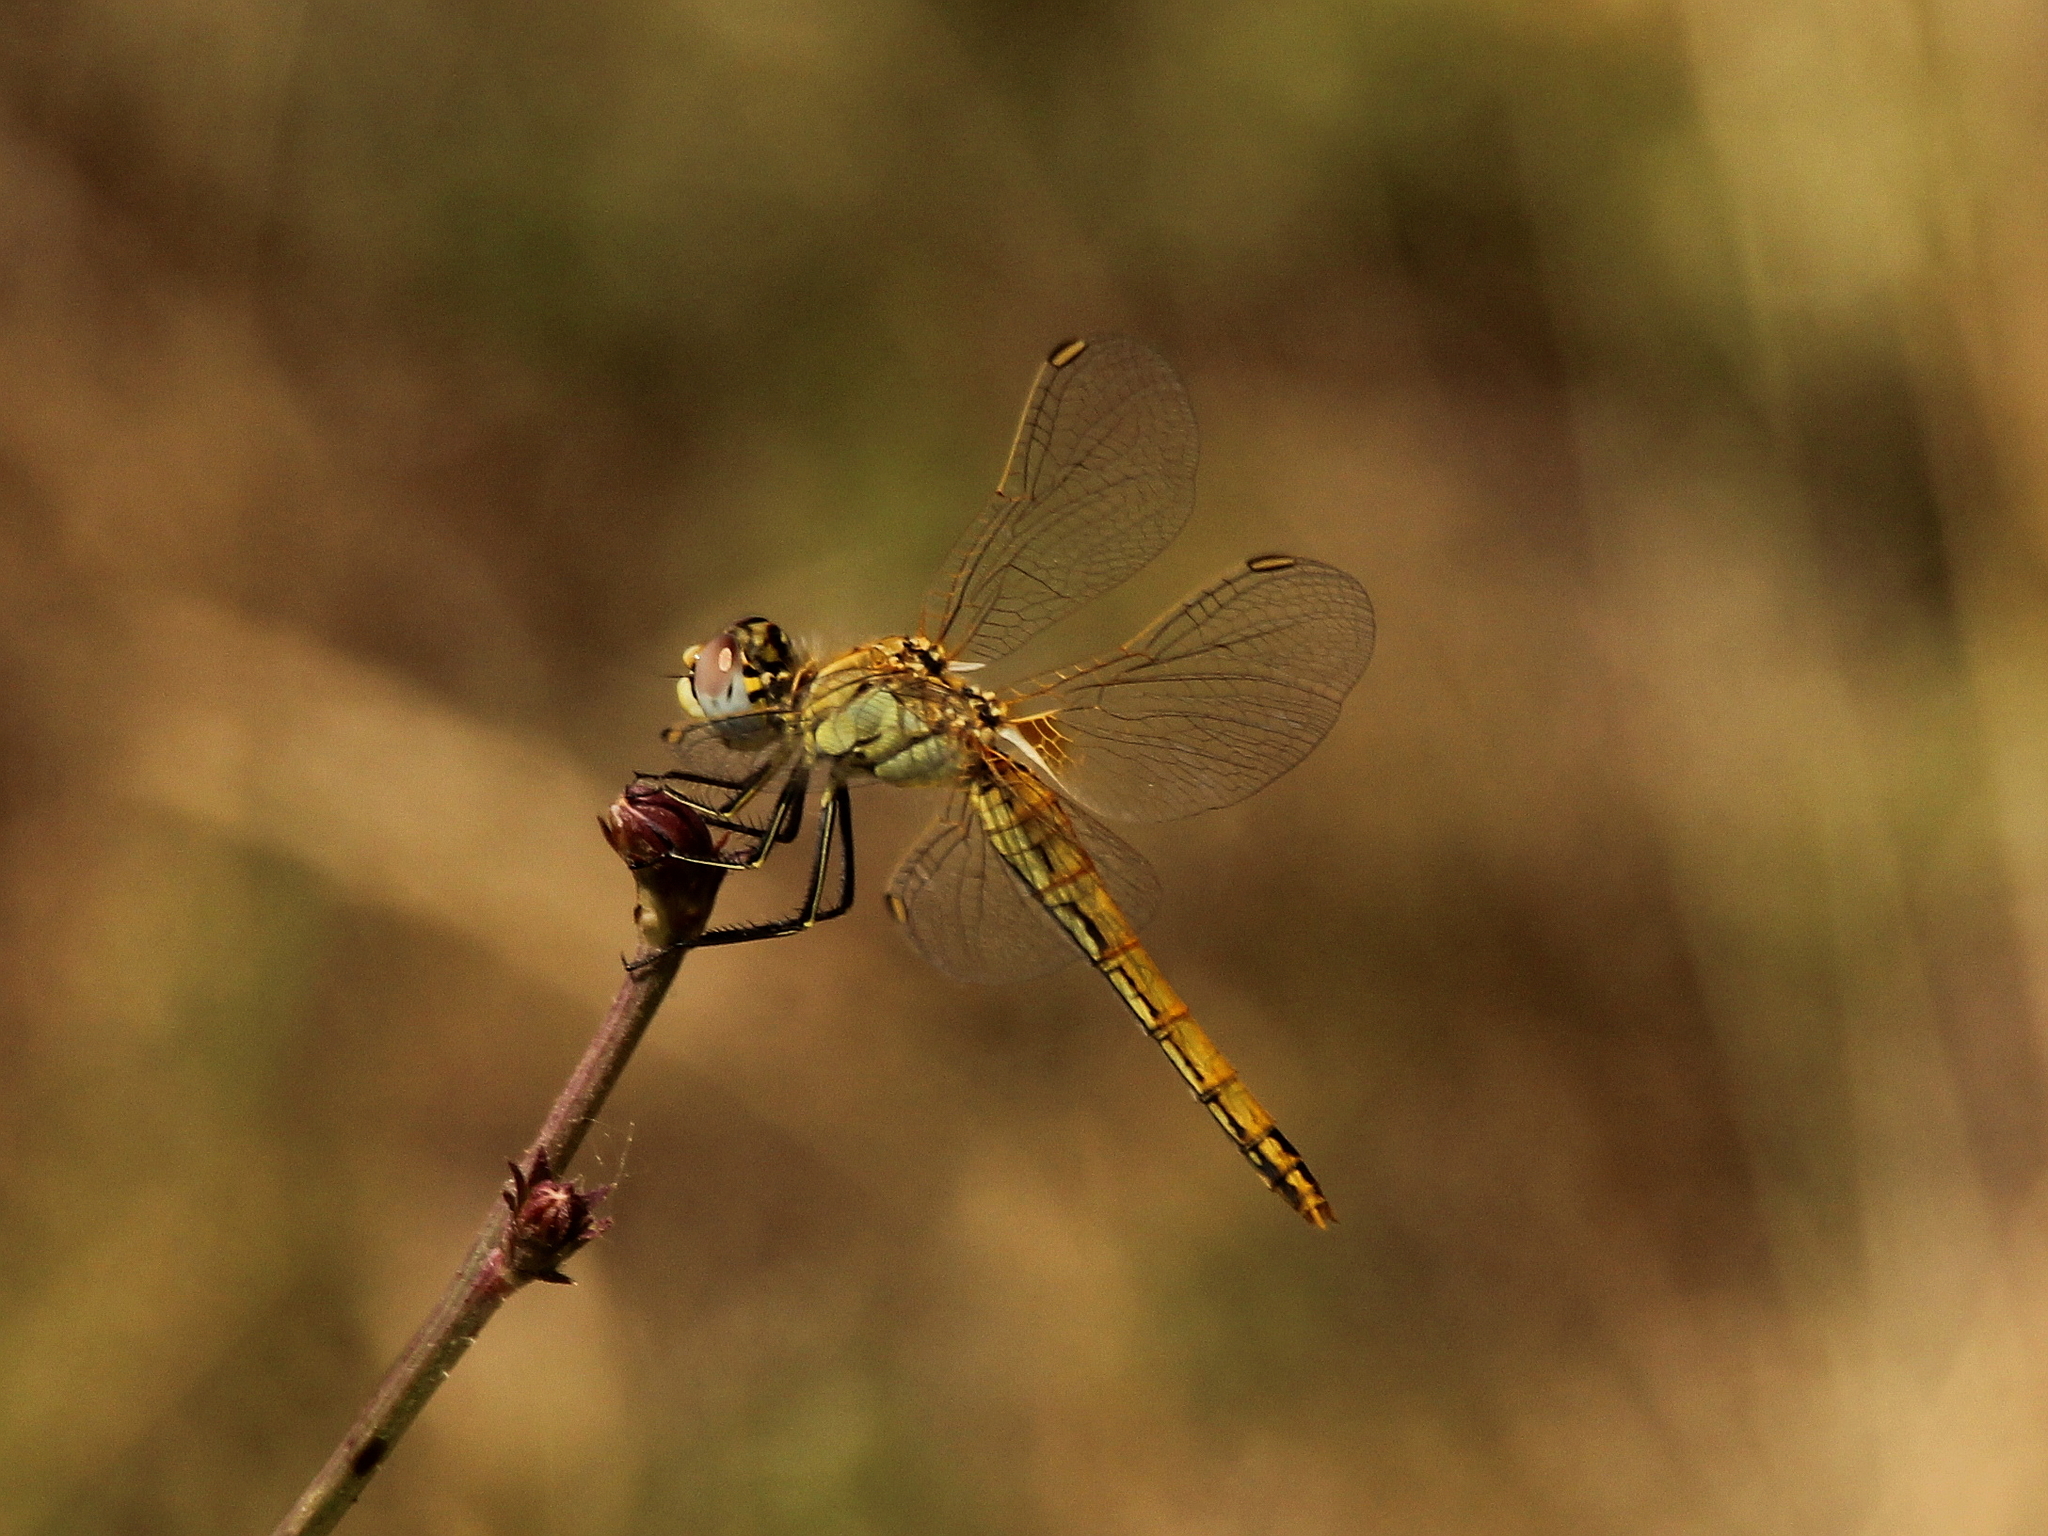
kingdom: Animalia
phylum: Arthropoda
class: Insecta
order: Odonata
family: Libellulidae
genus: Sympetrum
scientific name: Sympetrum fonscolombii
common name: Red-veined darter
